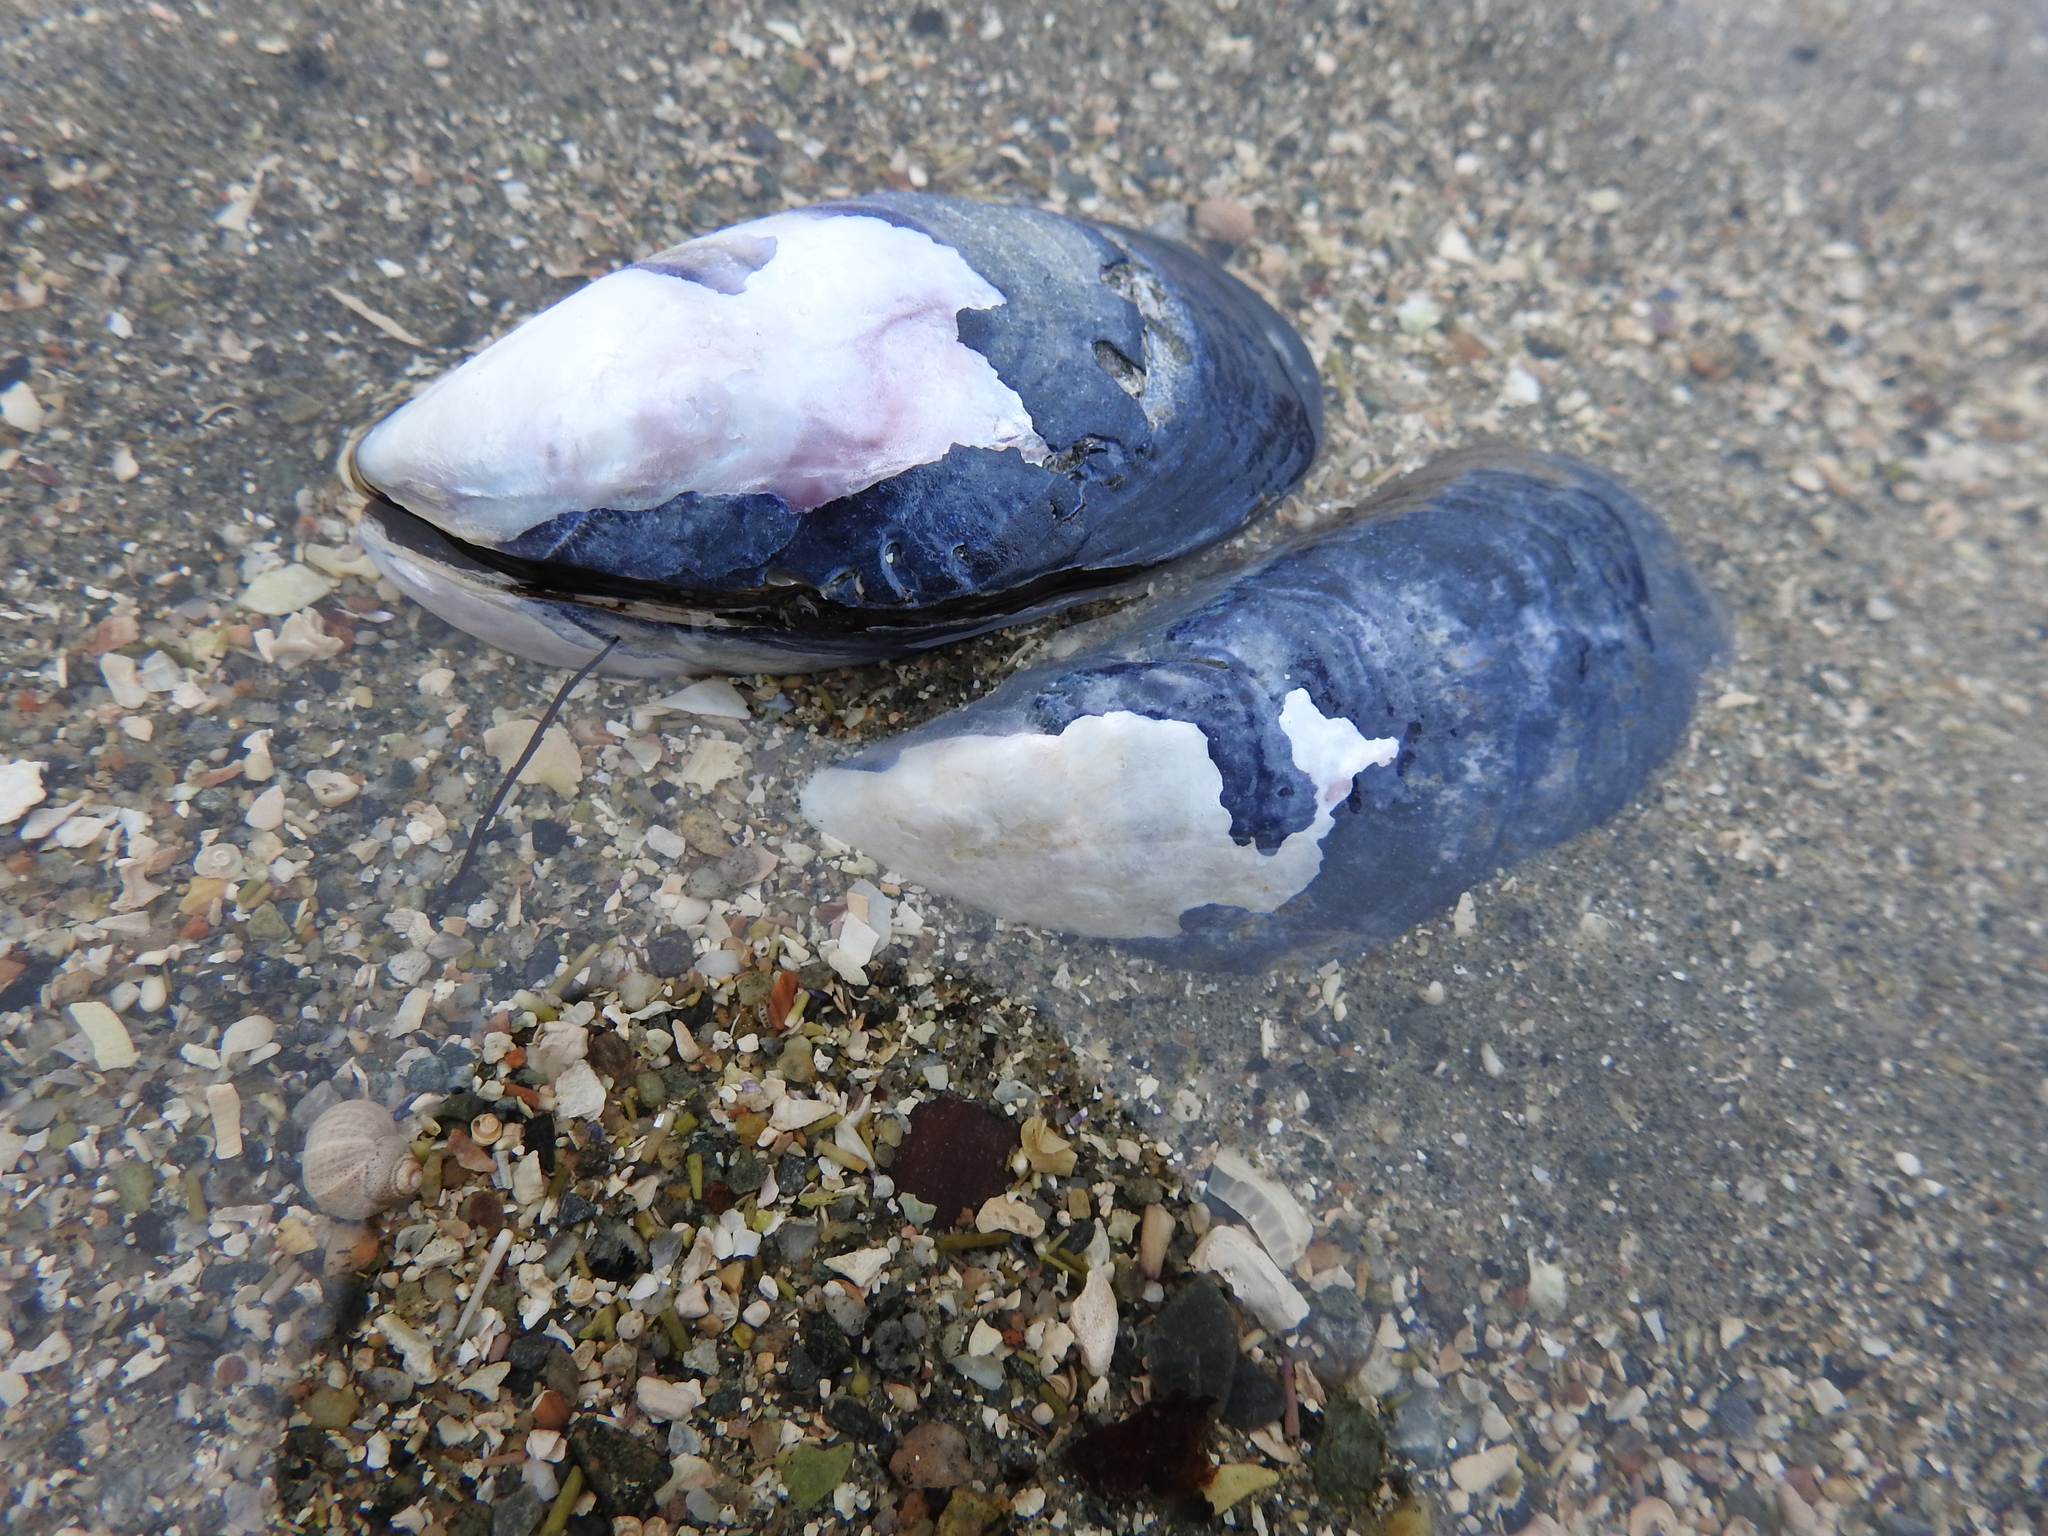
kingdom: Animalia
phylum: Mollusca
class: Bivalvia
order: Mytilida
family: Mytilidae
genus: Mytilus
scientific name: Mytilus edulis
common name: Blue mussel
